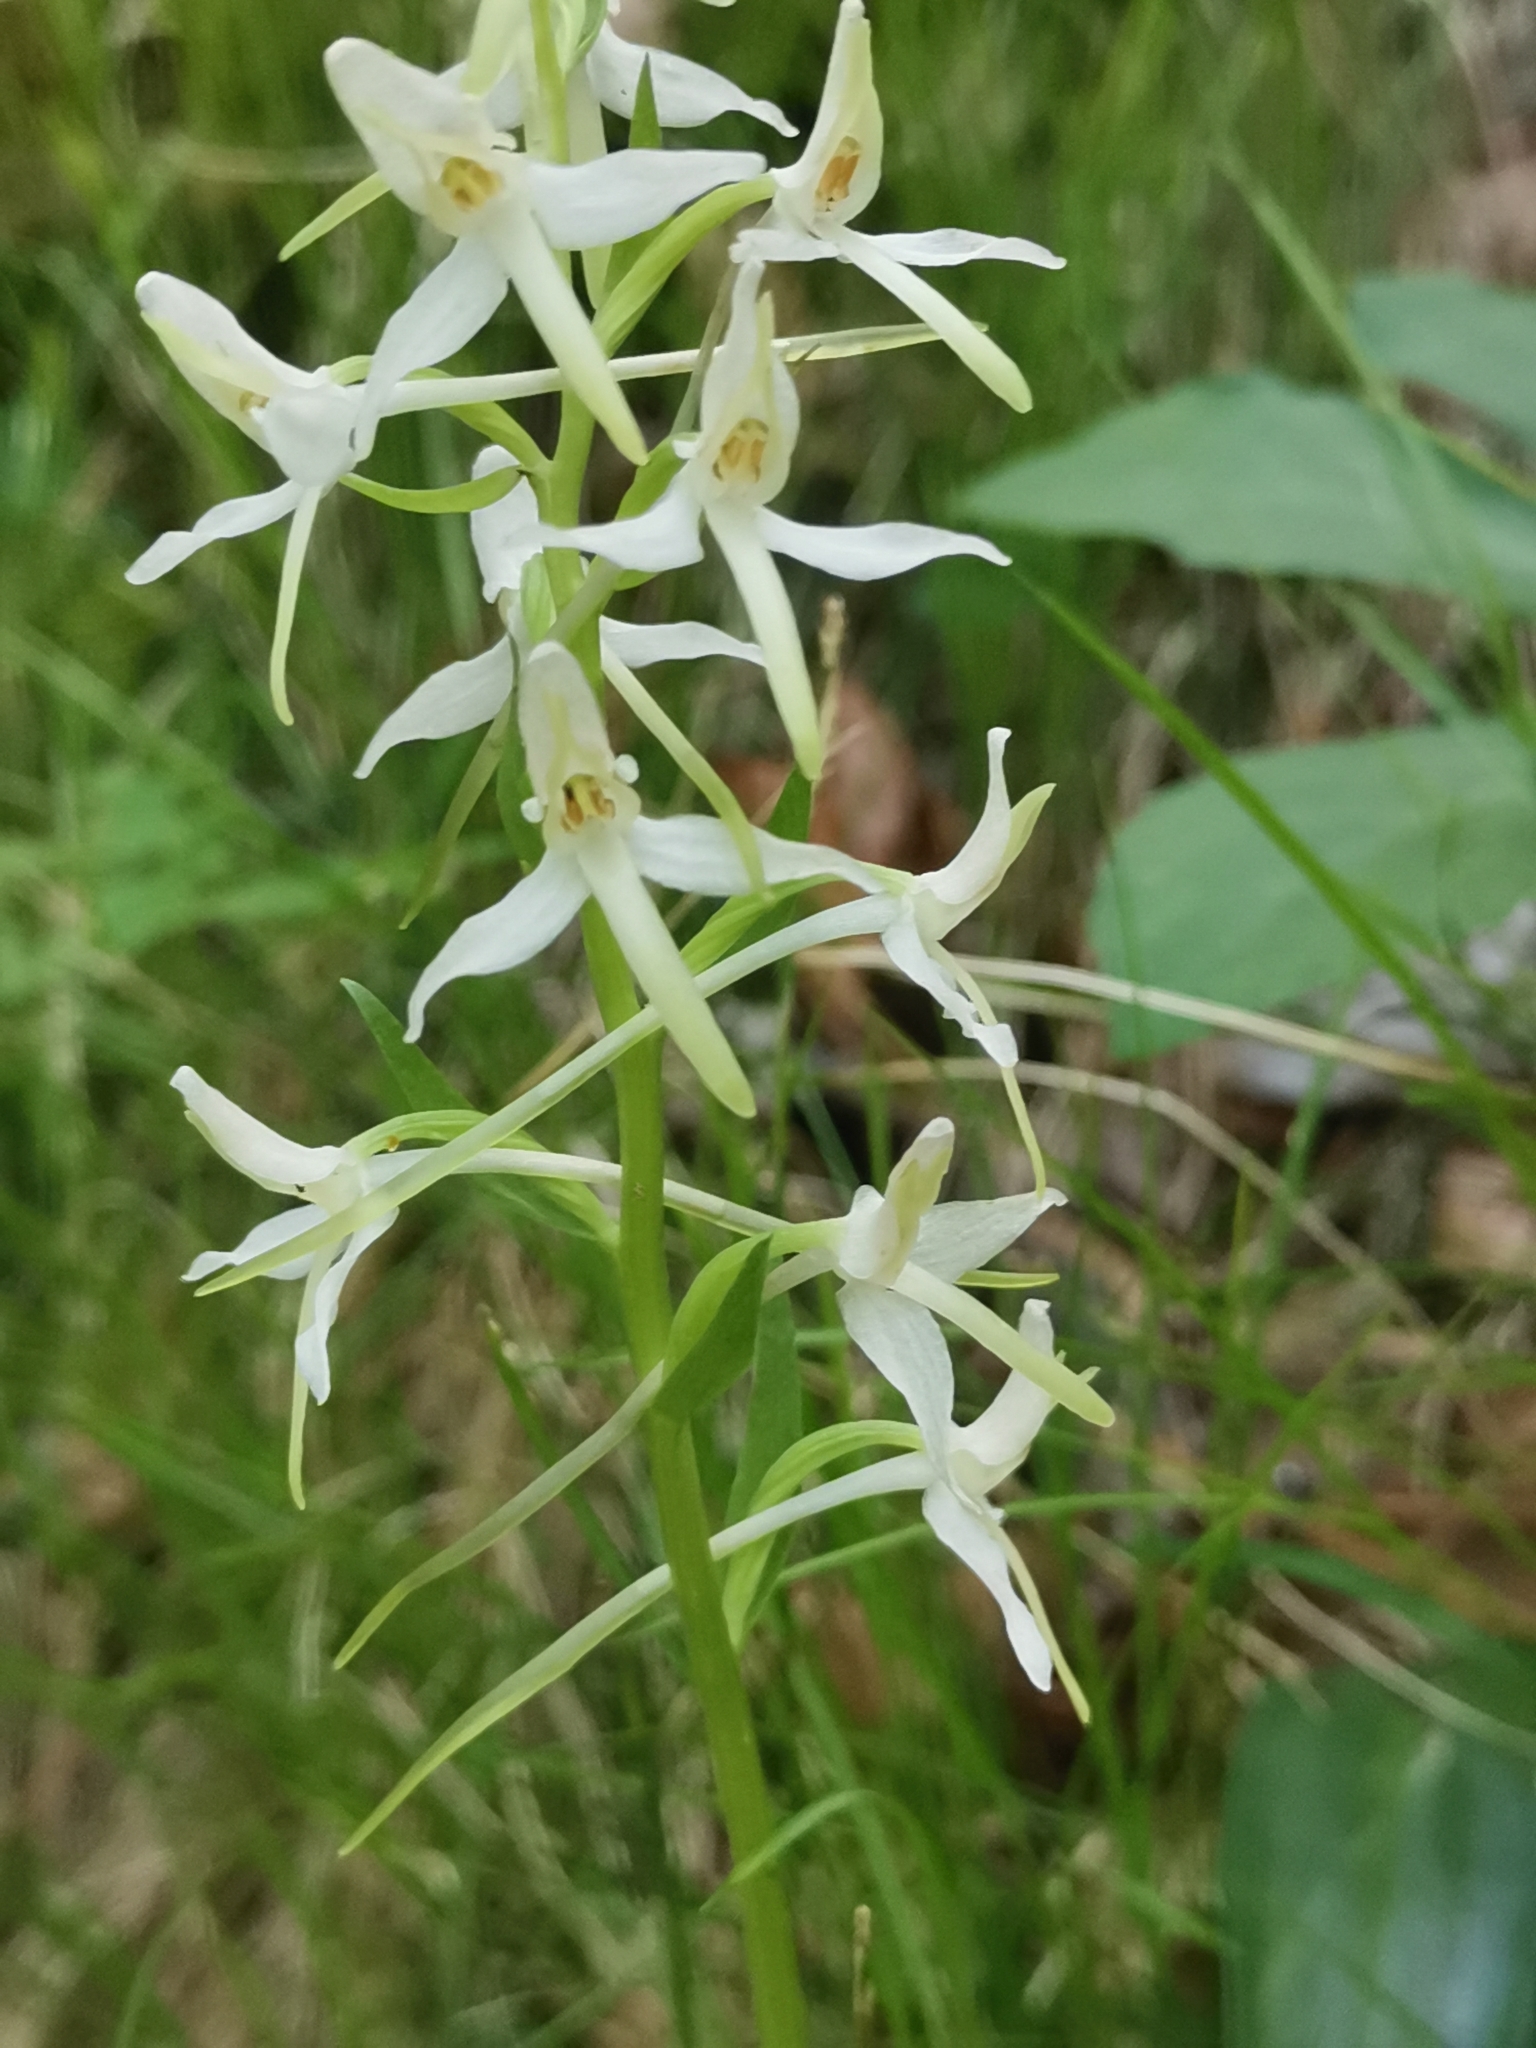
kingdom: Plantae
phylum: Tracheophyta
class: Liliopsida
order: Asparagales
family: Orchidaceae
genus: Platanthera
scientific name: Platanthera bifolia
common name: Lesser butterfly-orchid
